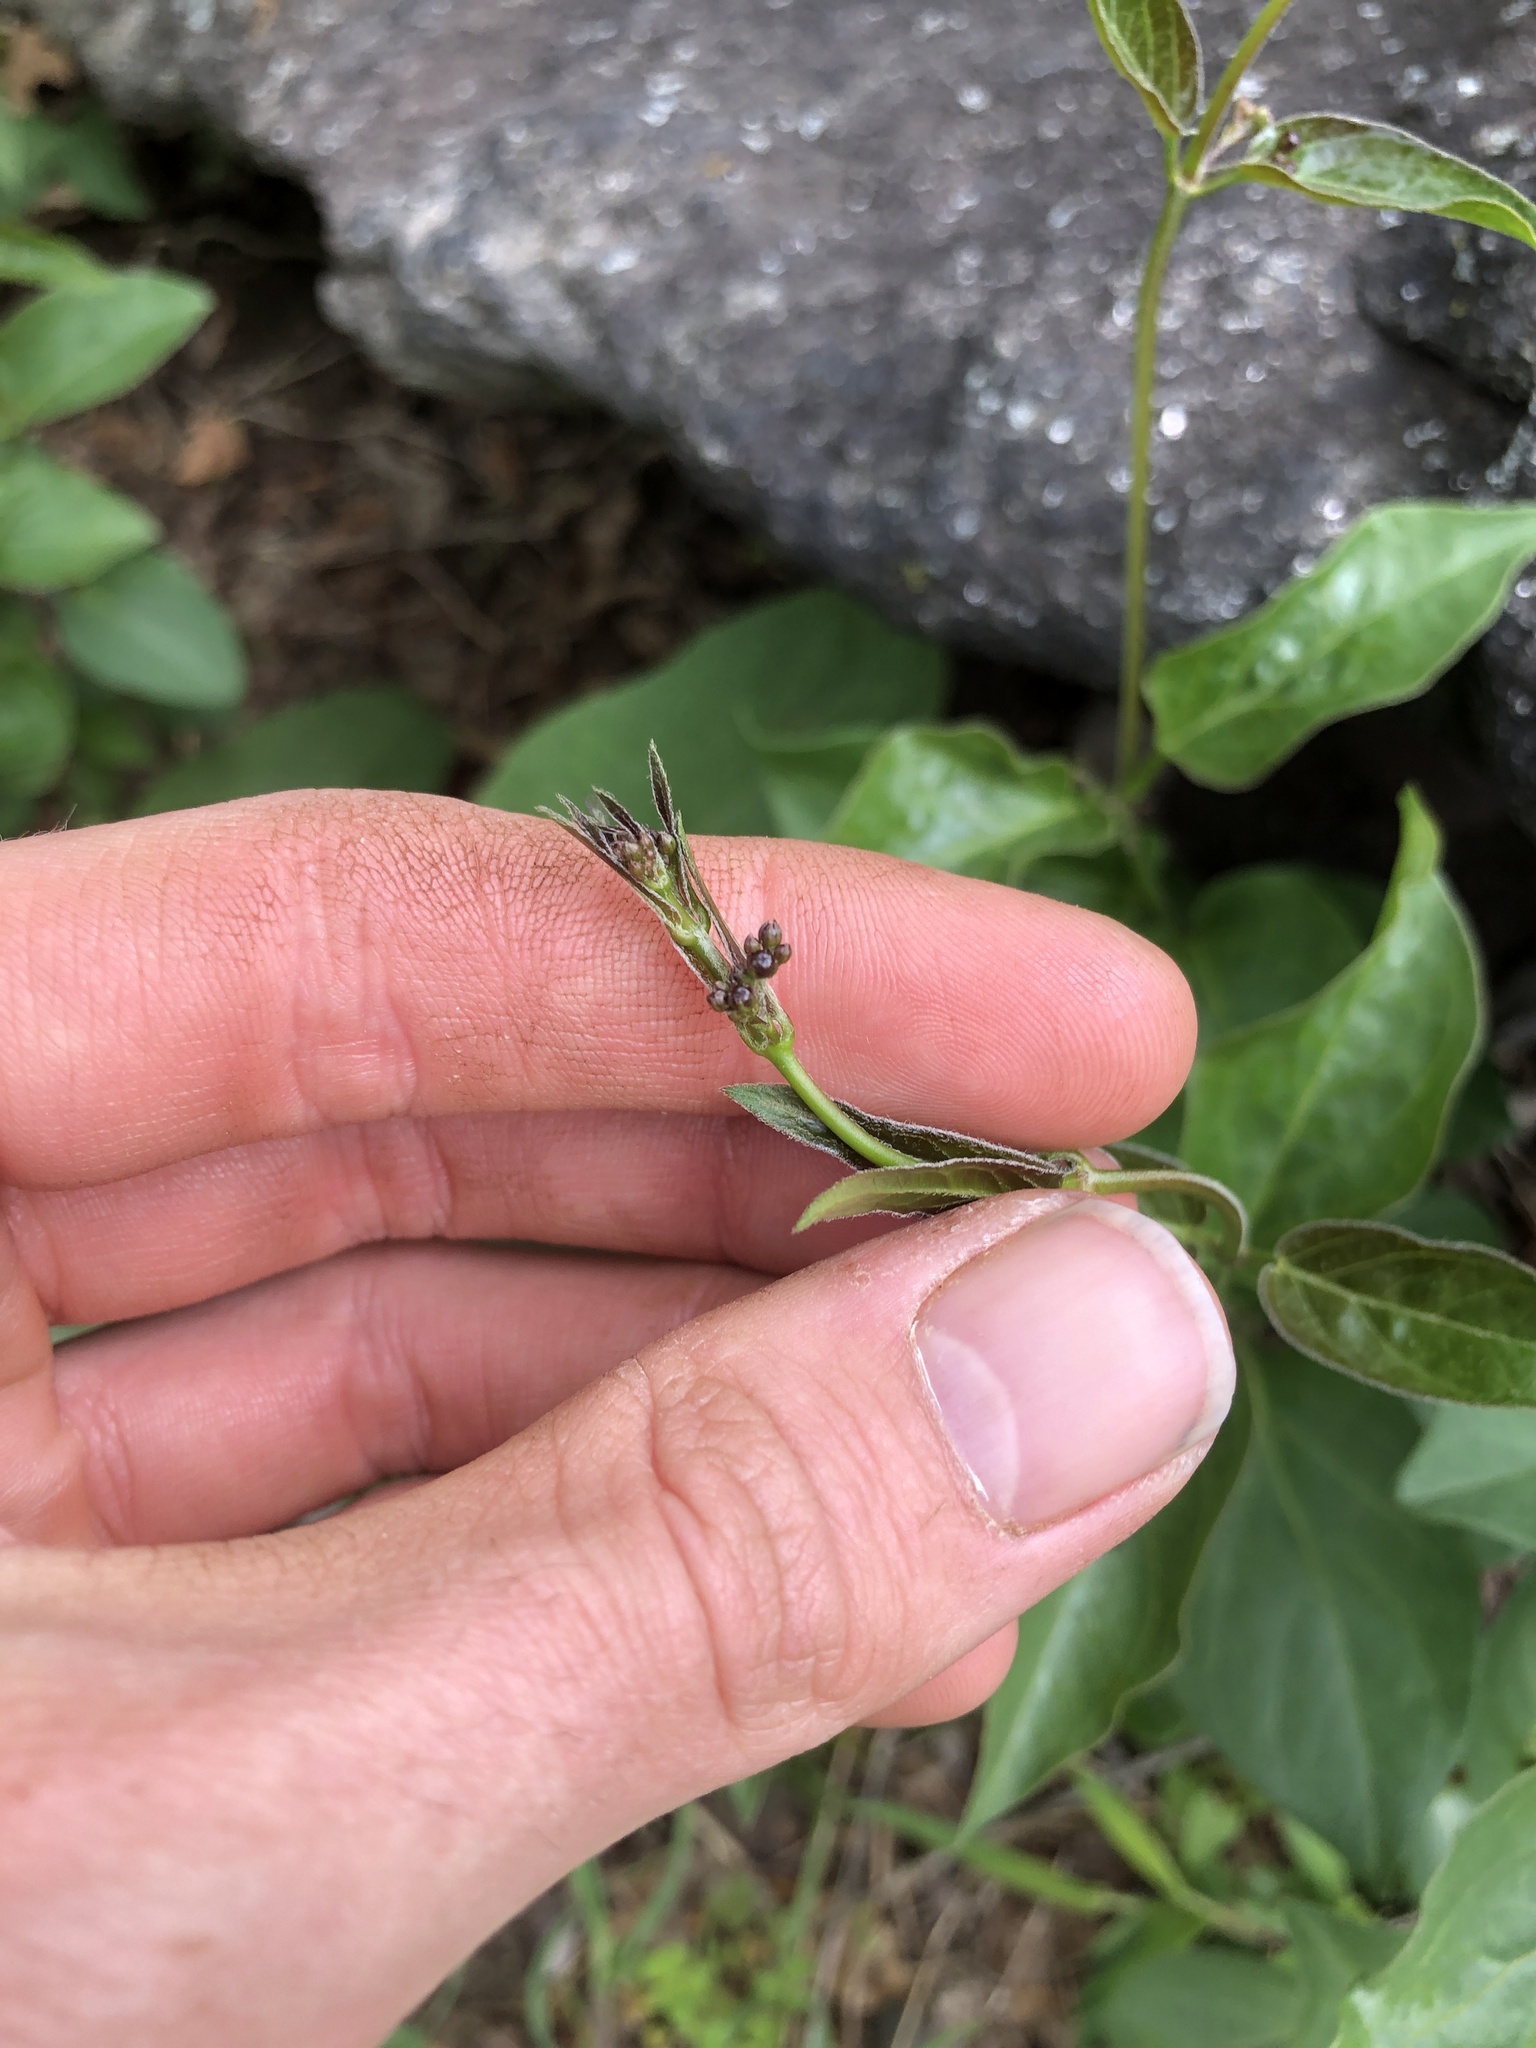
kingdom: Plantae
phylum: Tracheophyta
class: Magnoliopsida
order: Gentianales
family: Apocynaceae
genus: Vincetoxicum
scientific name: Vincetoxicum nigrum
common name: Black swallow-wort
